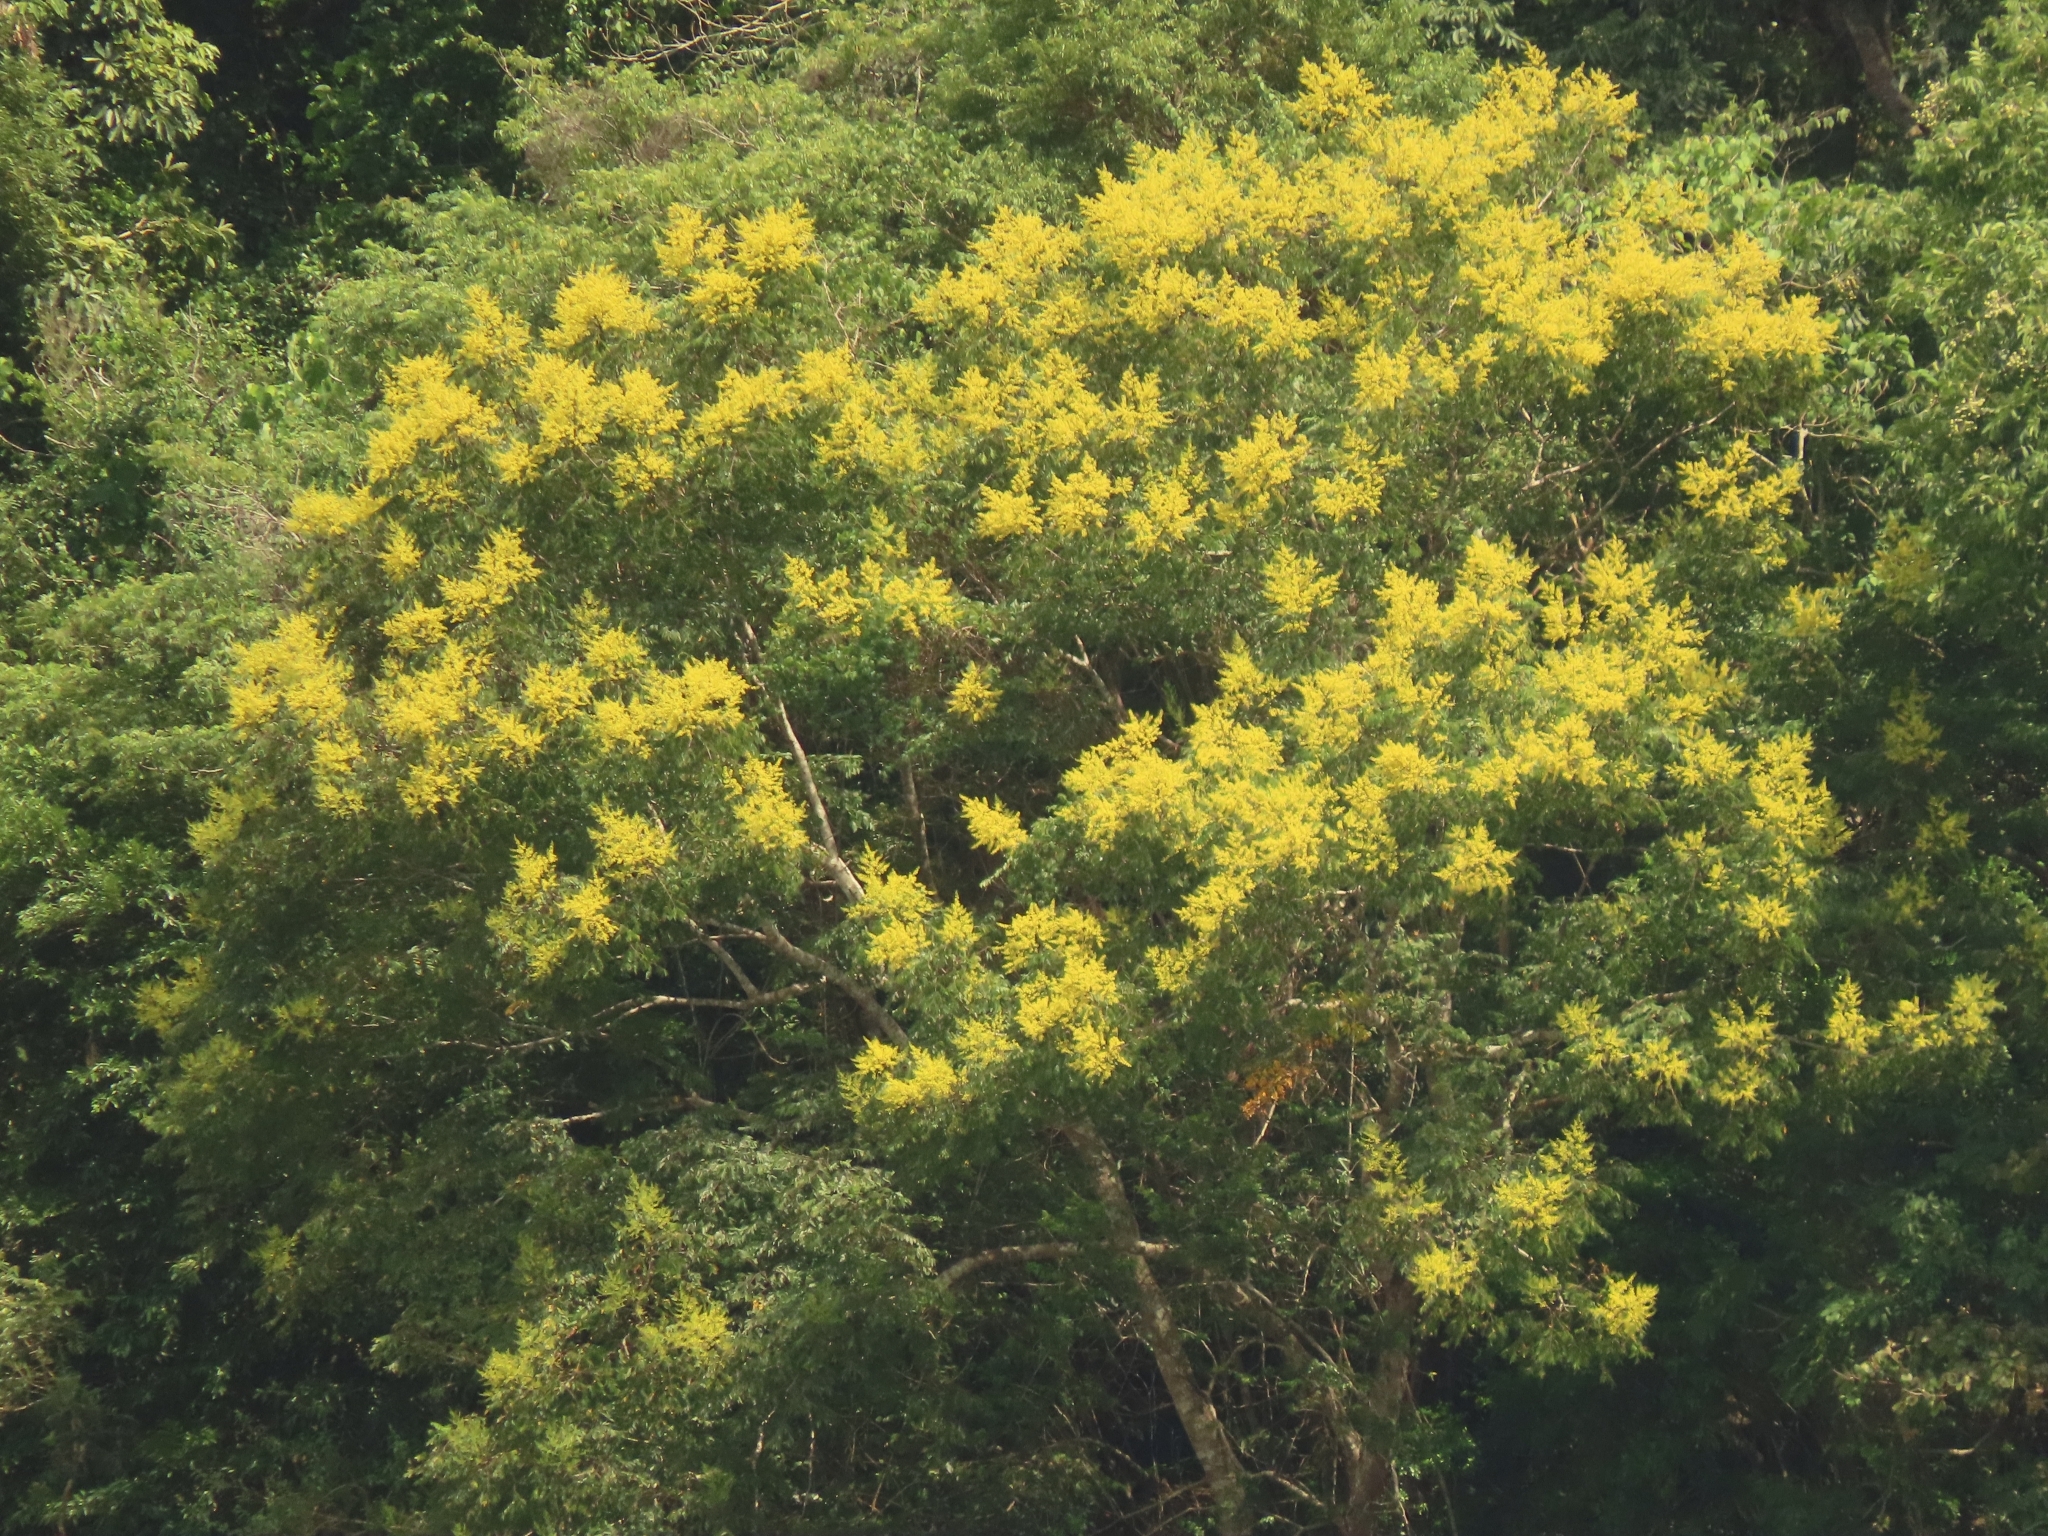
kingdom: Plantae
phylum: Tracheophyta
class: Magnoliopsida
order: Sapindales
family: Sapindaceae
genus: Koelreuteria
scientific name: Koelreuteria elegans
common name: Chinese flame tree
